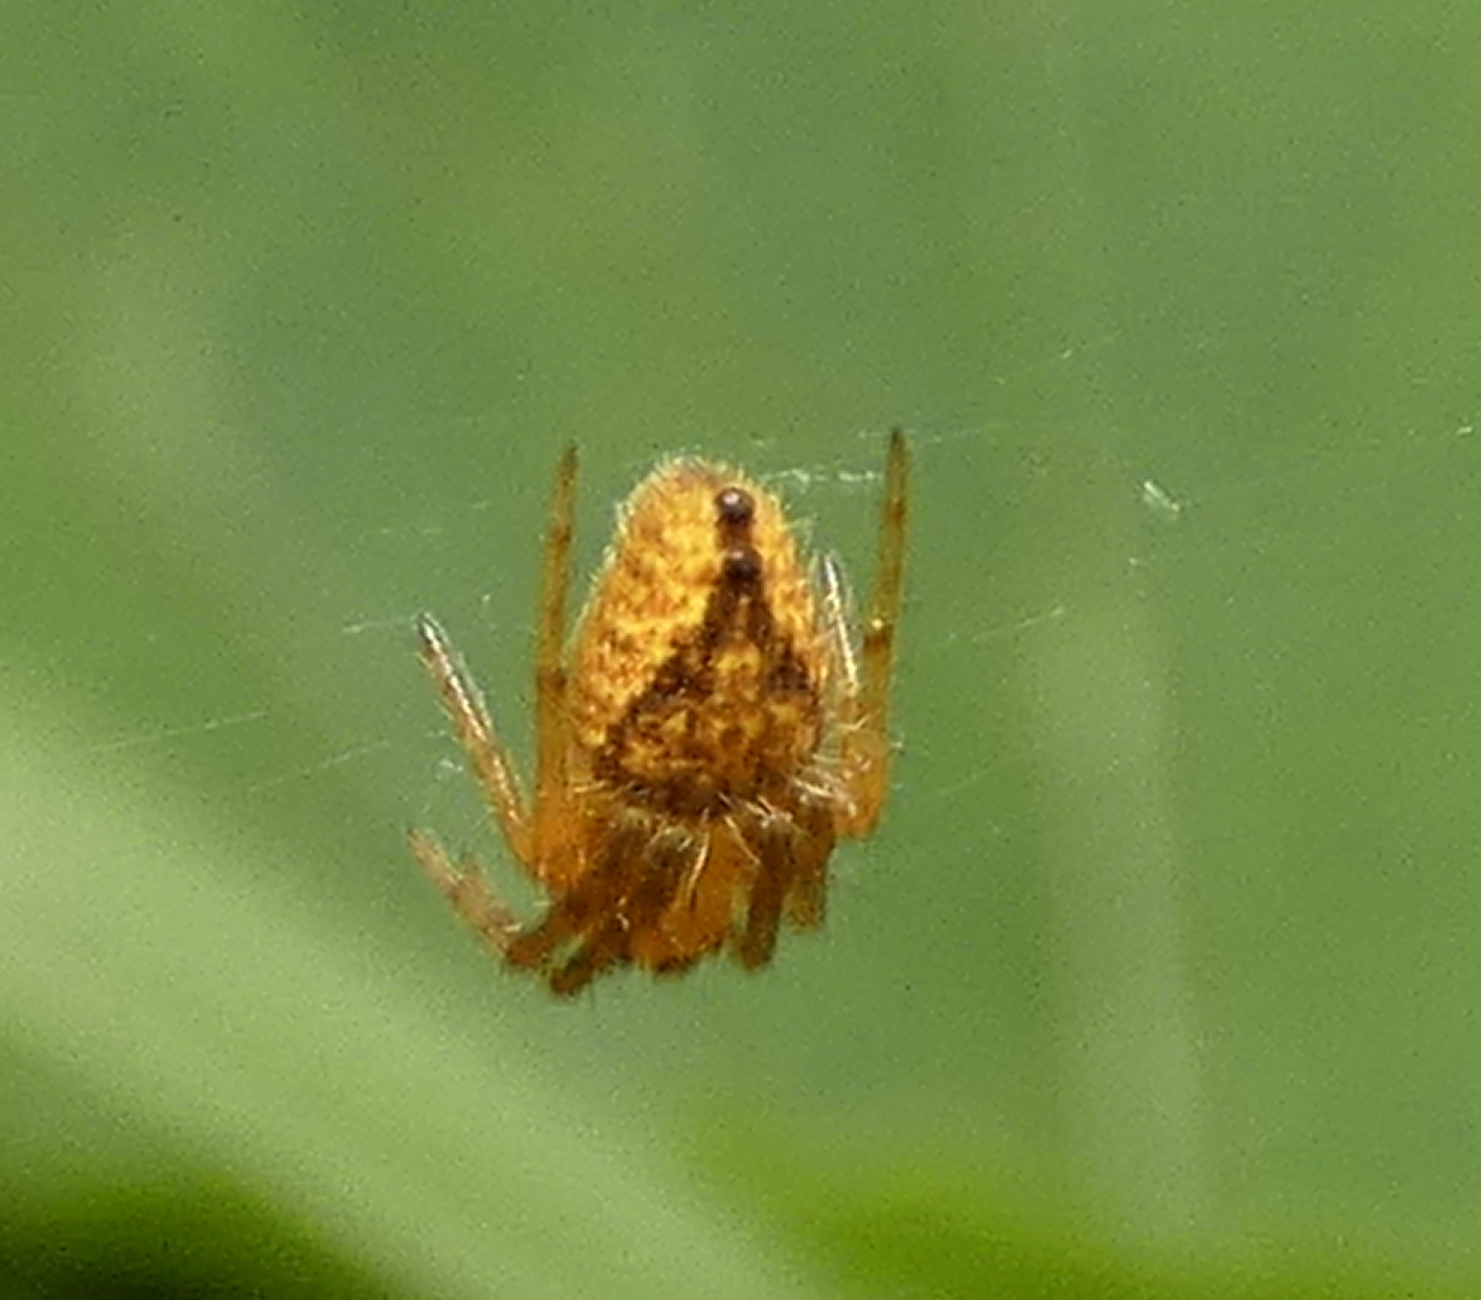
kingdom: Animalia
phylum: Arthropoda
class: Arachnida
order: Araneae
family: Araneidae
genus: Eriophora
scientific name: Eriophora edax
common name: Orb weavers
